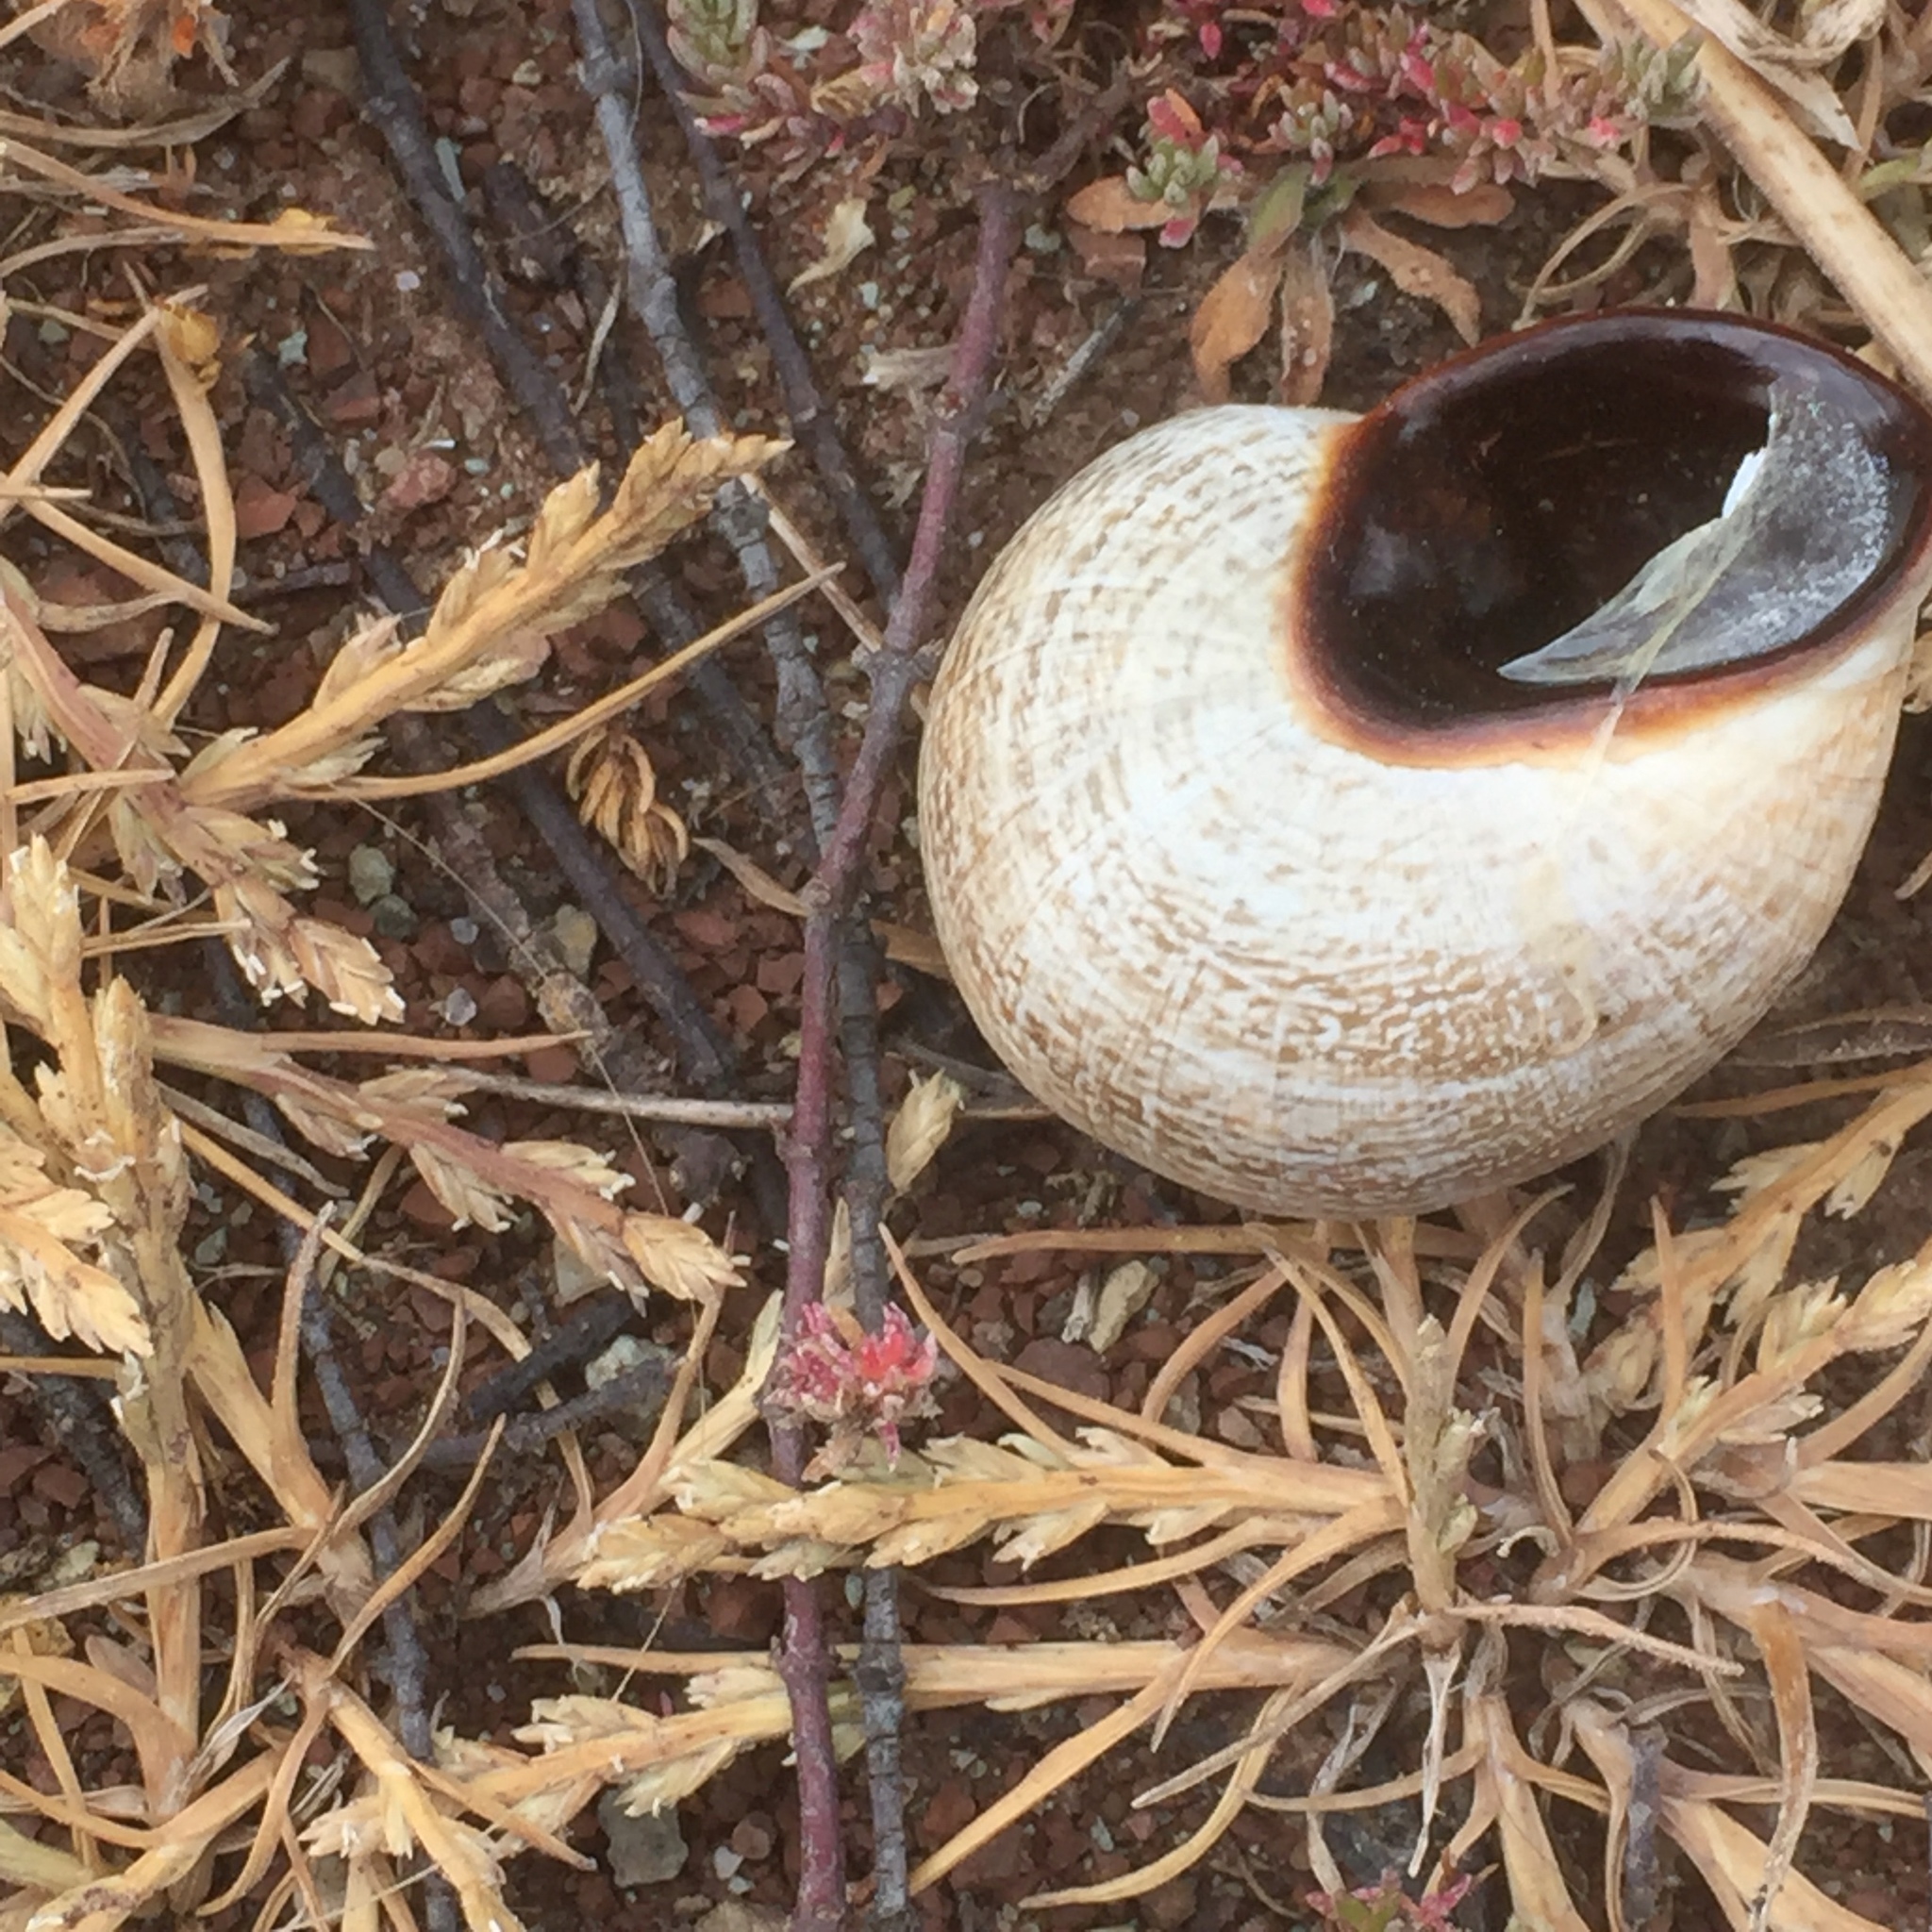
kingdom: Animalia
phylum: Mollusca
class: Gastropoda
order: Stylommatophora
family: Helicidae
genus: Otala
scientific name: Otala lactea
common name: Milk snail
